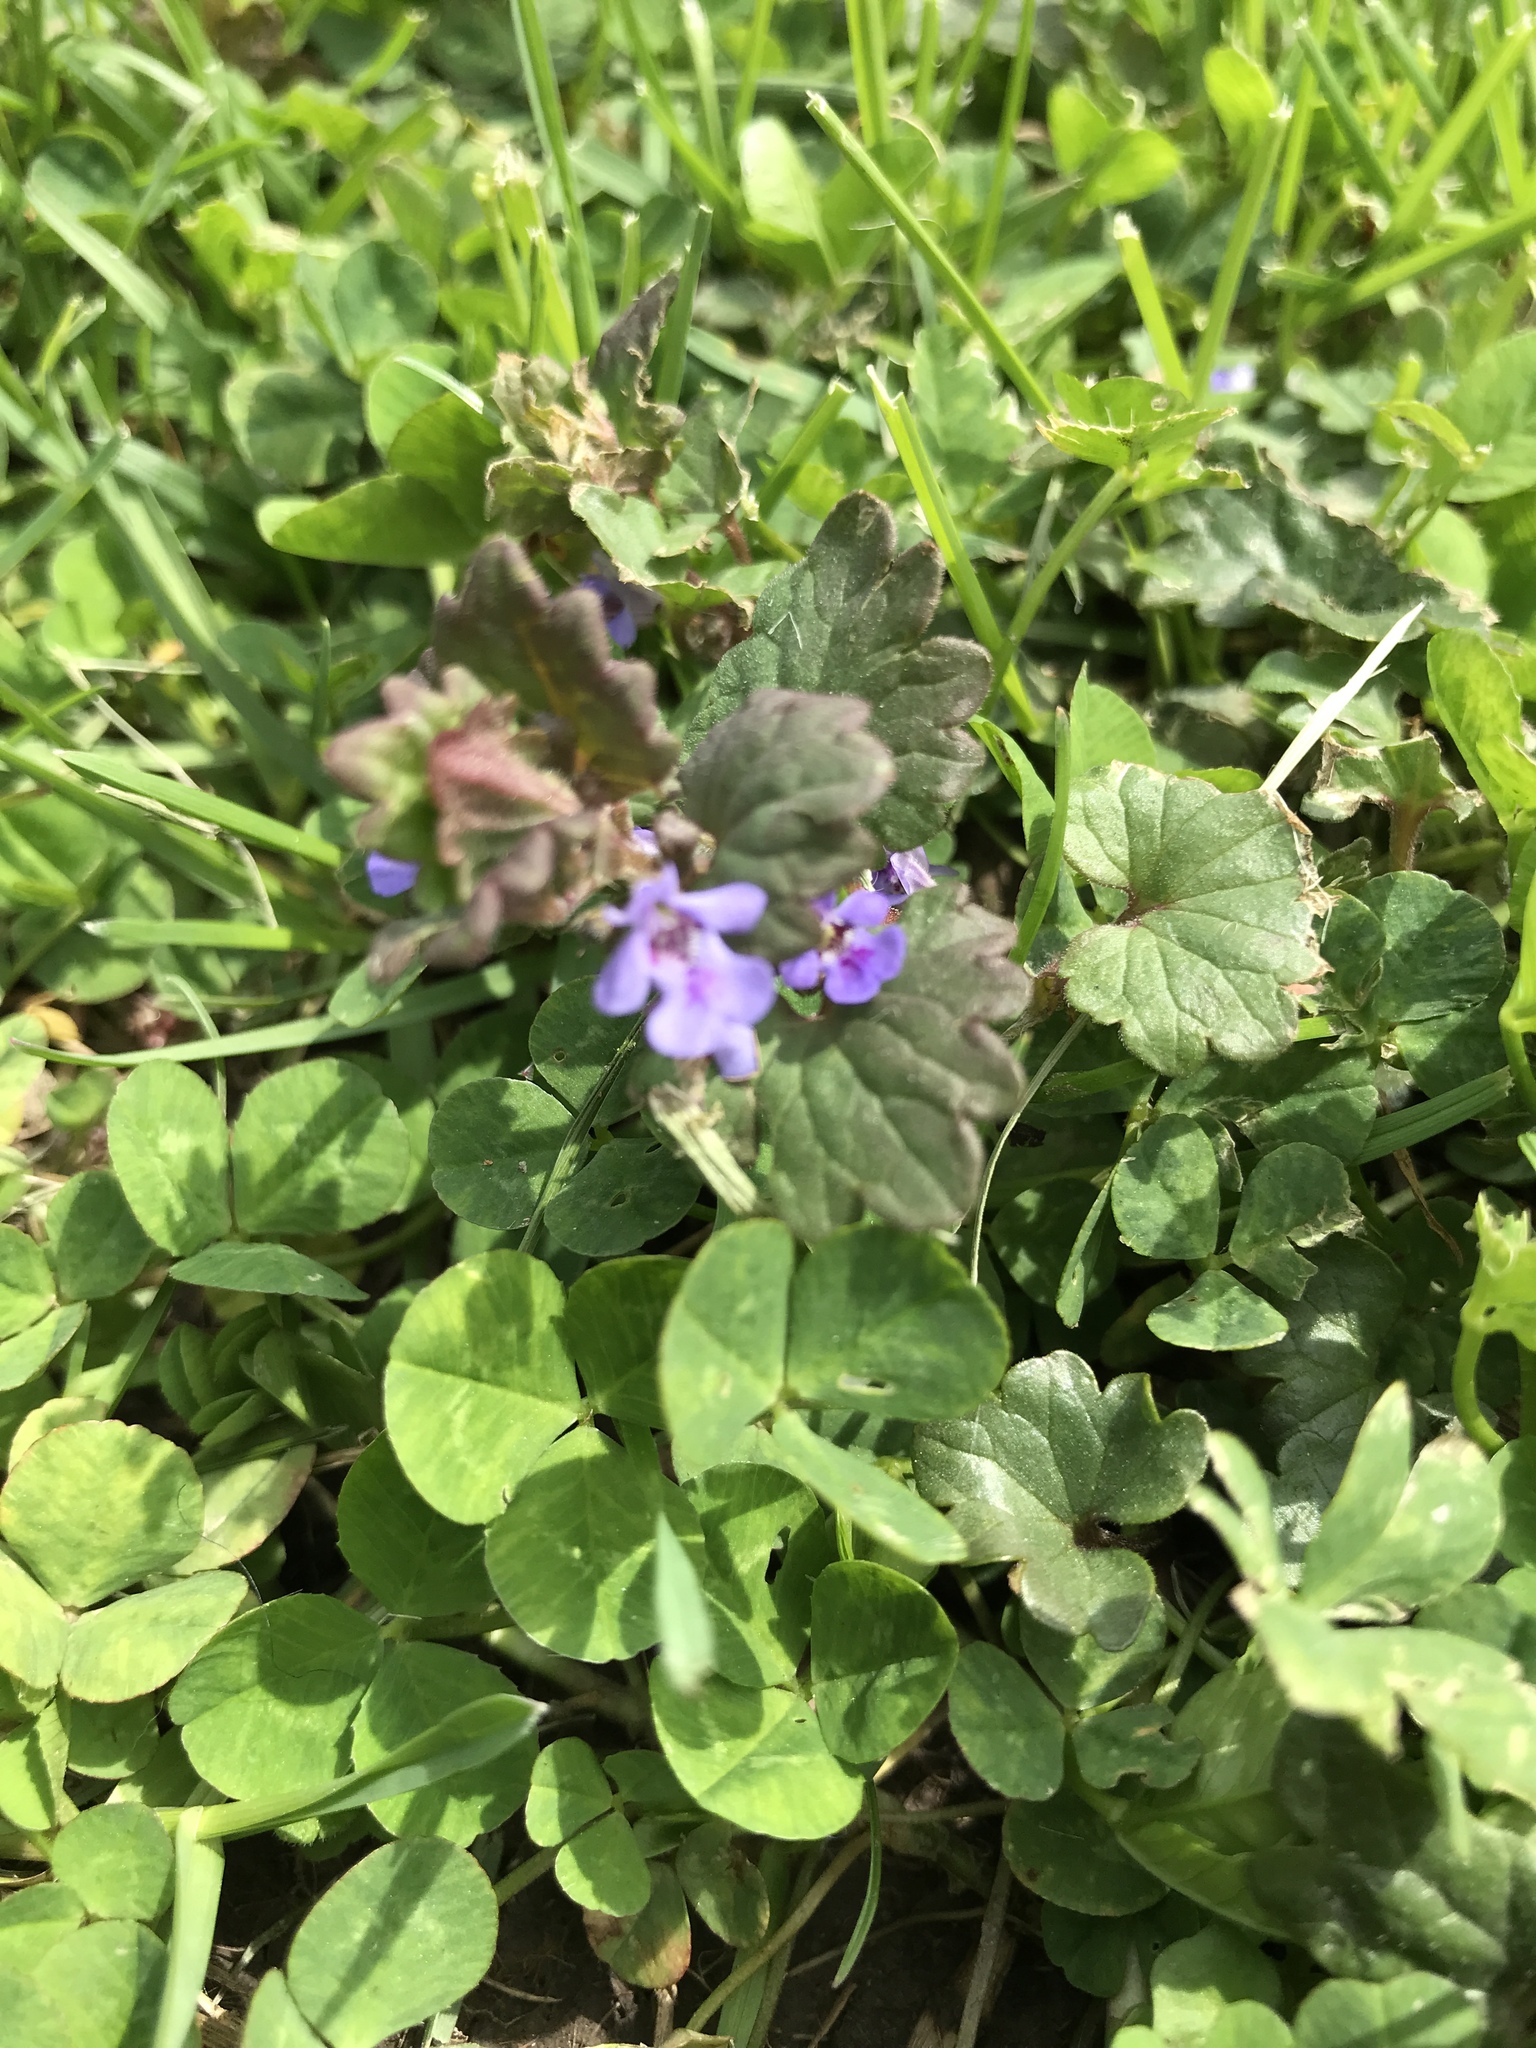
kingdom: Plantae
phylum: Tracheophyta
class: Magnoliopsida
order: Lamiales
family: Lamiaceae
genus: Glechoma
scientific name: Glechoma hederacea
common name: Ground ivy
